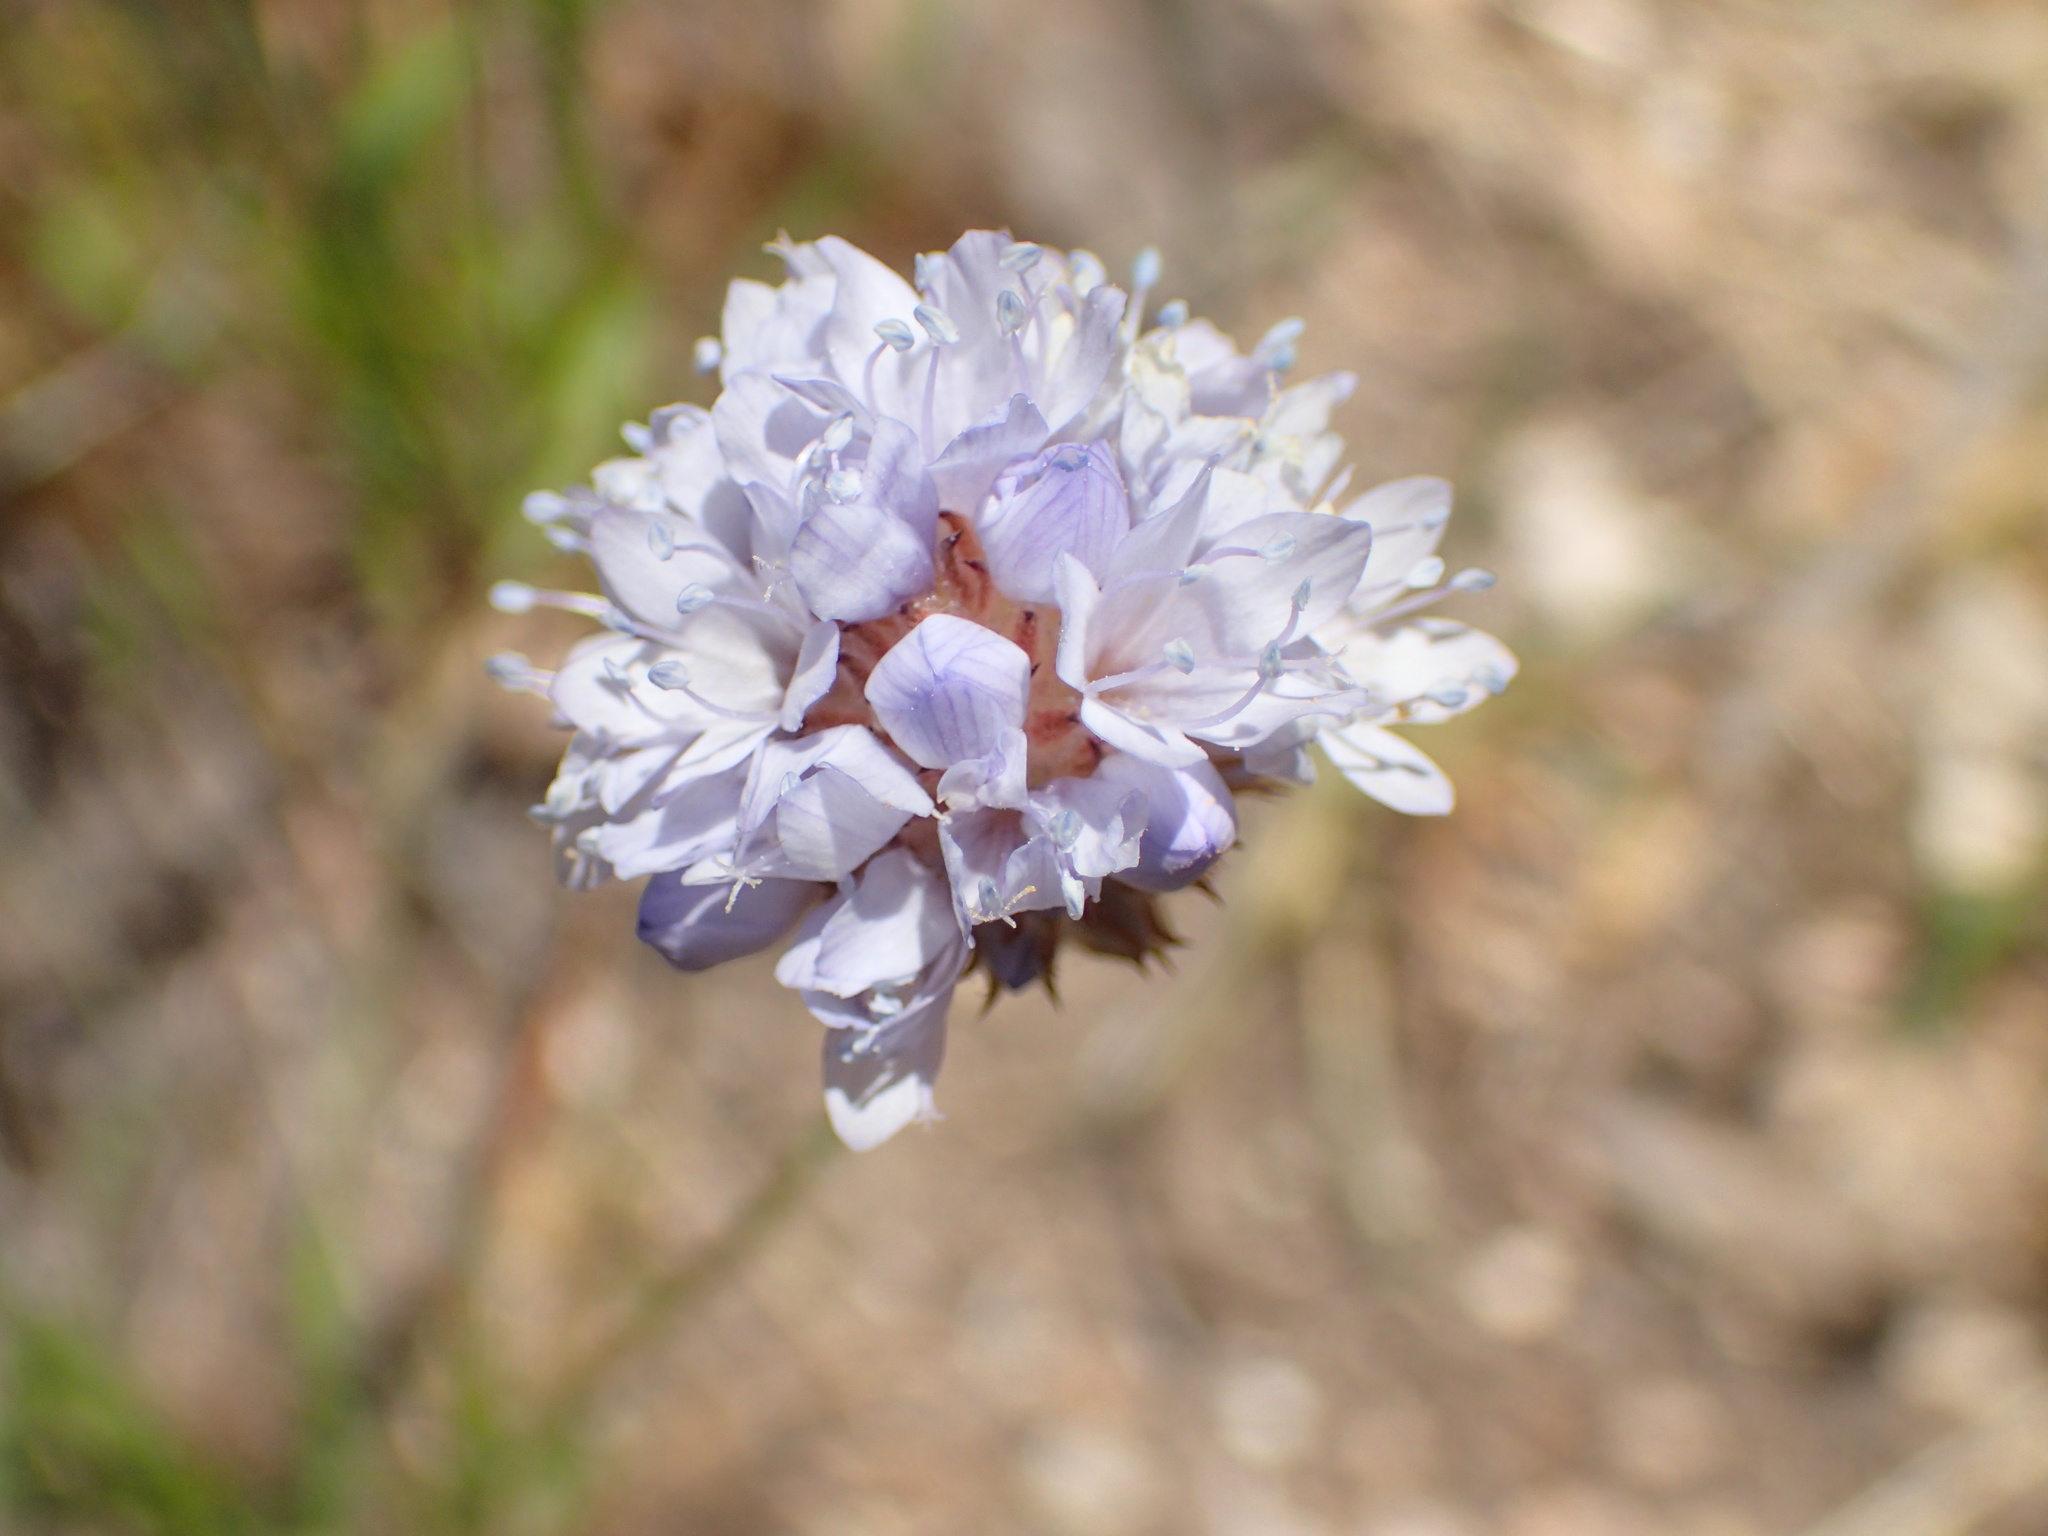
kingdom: Plantae
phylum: Tracheophyta
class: Magnoliopsida
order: Ericales
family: Polemoniaceae
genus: Gilia
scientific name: Gilia capitata
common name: Bluehead gilia
